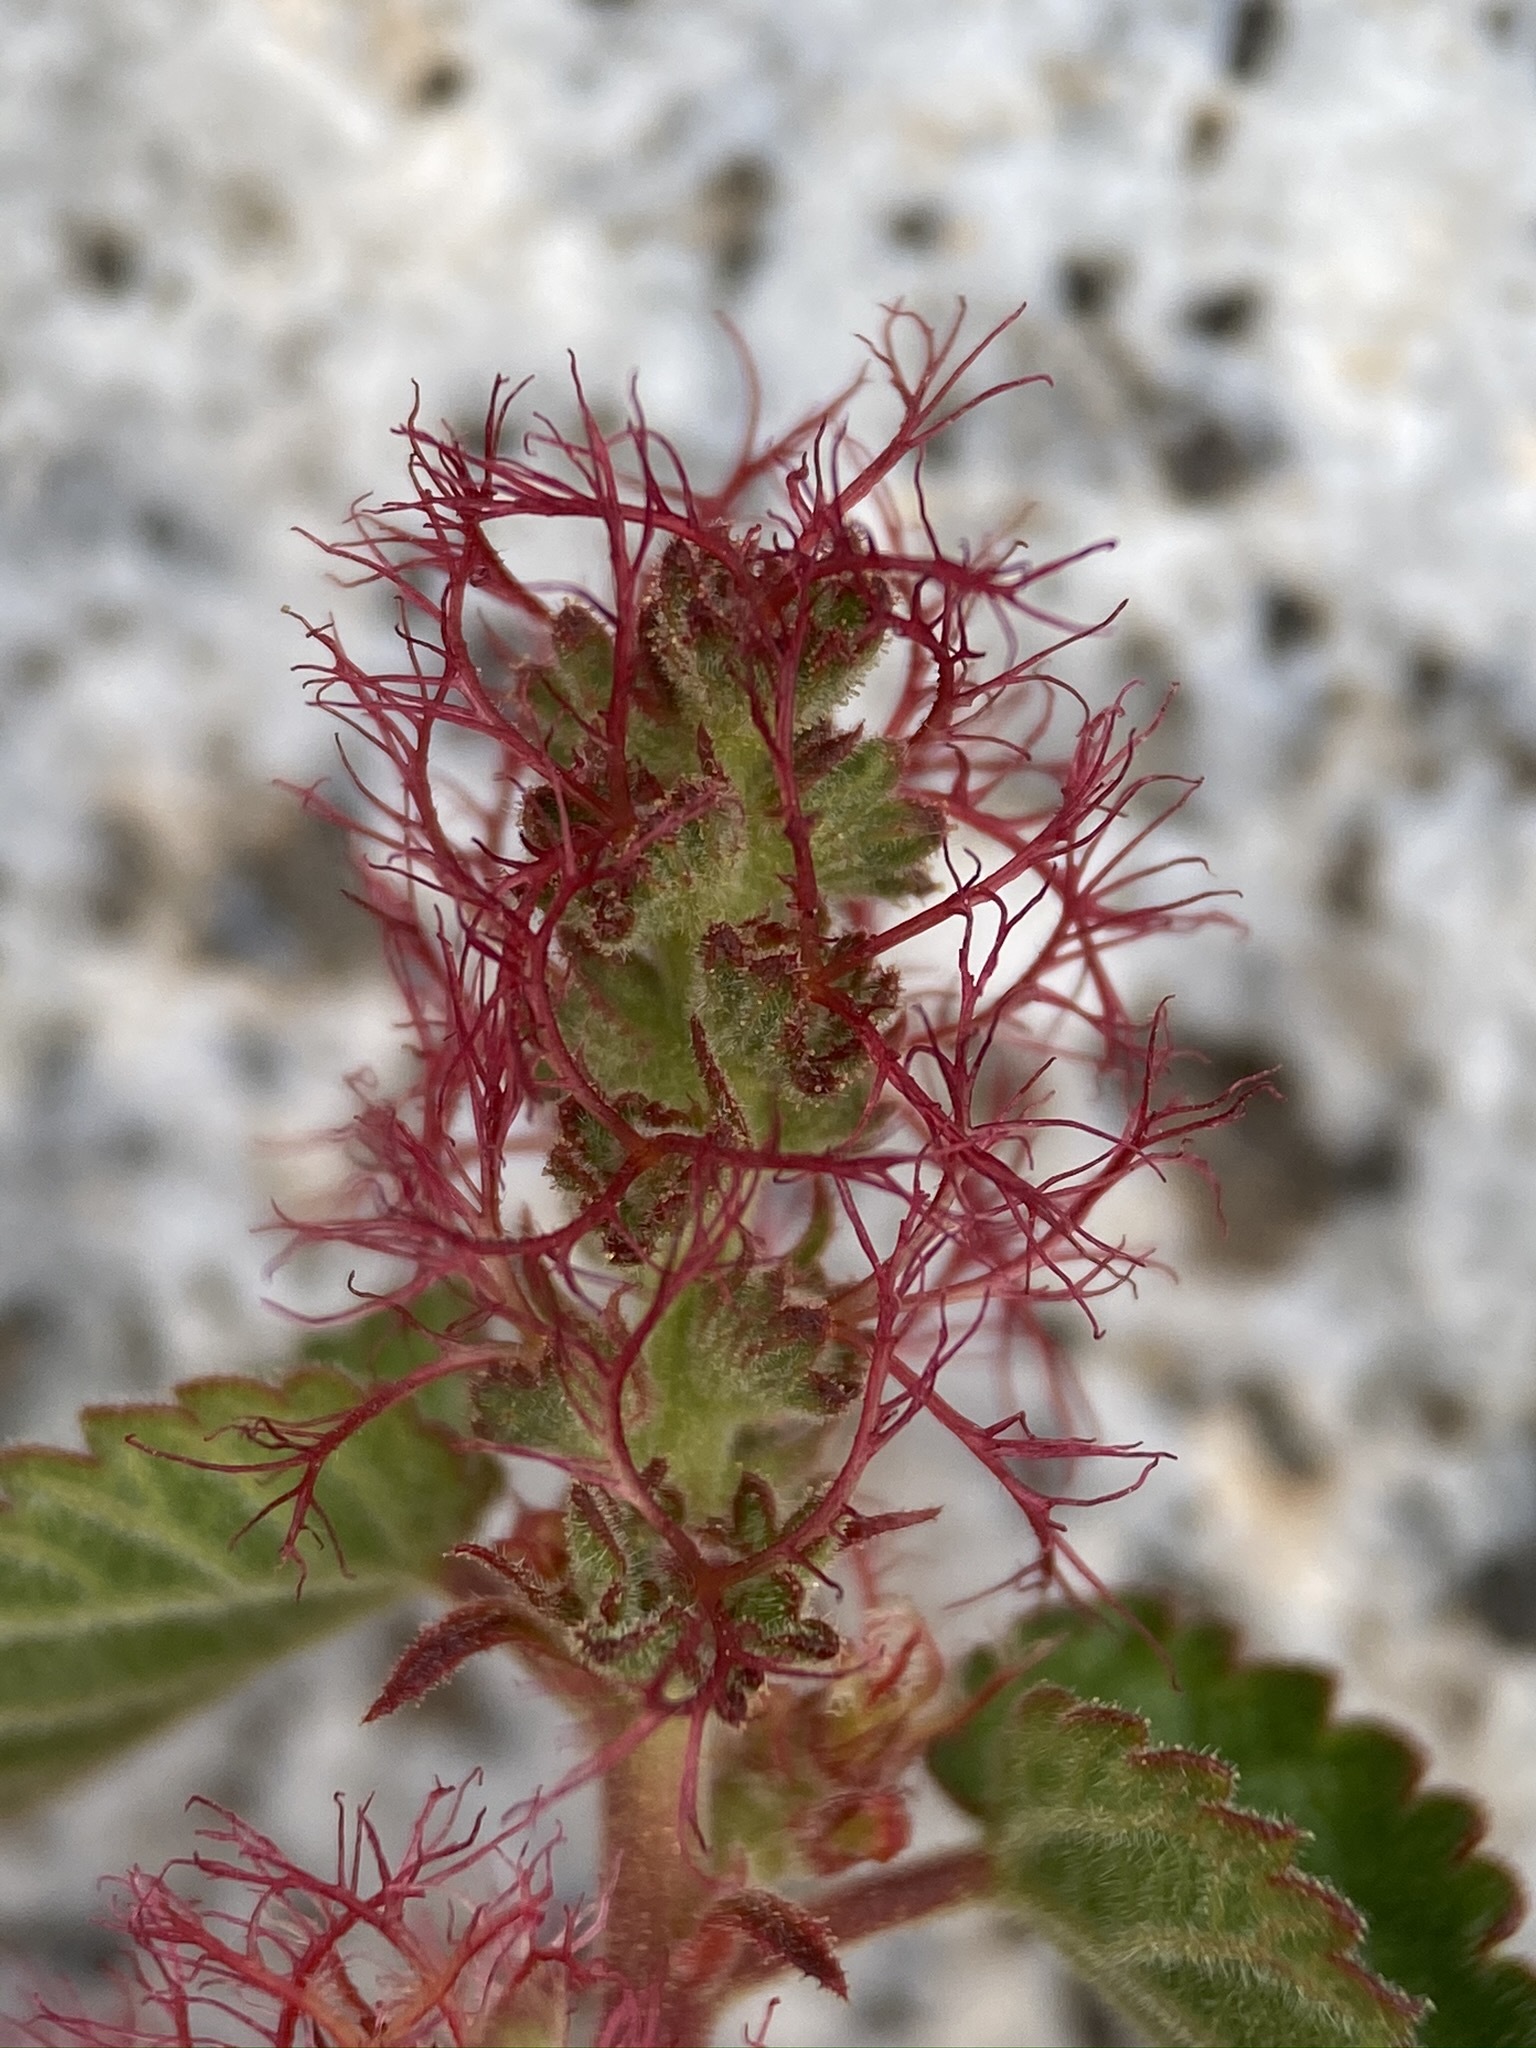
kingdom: Plantae
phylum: Tracheophyta
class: Magnoliopsida
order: Malpighiales
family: Euphorbiaceae
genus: Acalypha
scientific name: Acalypha californica
